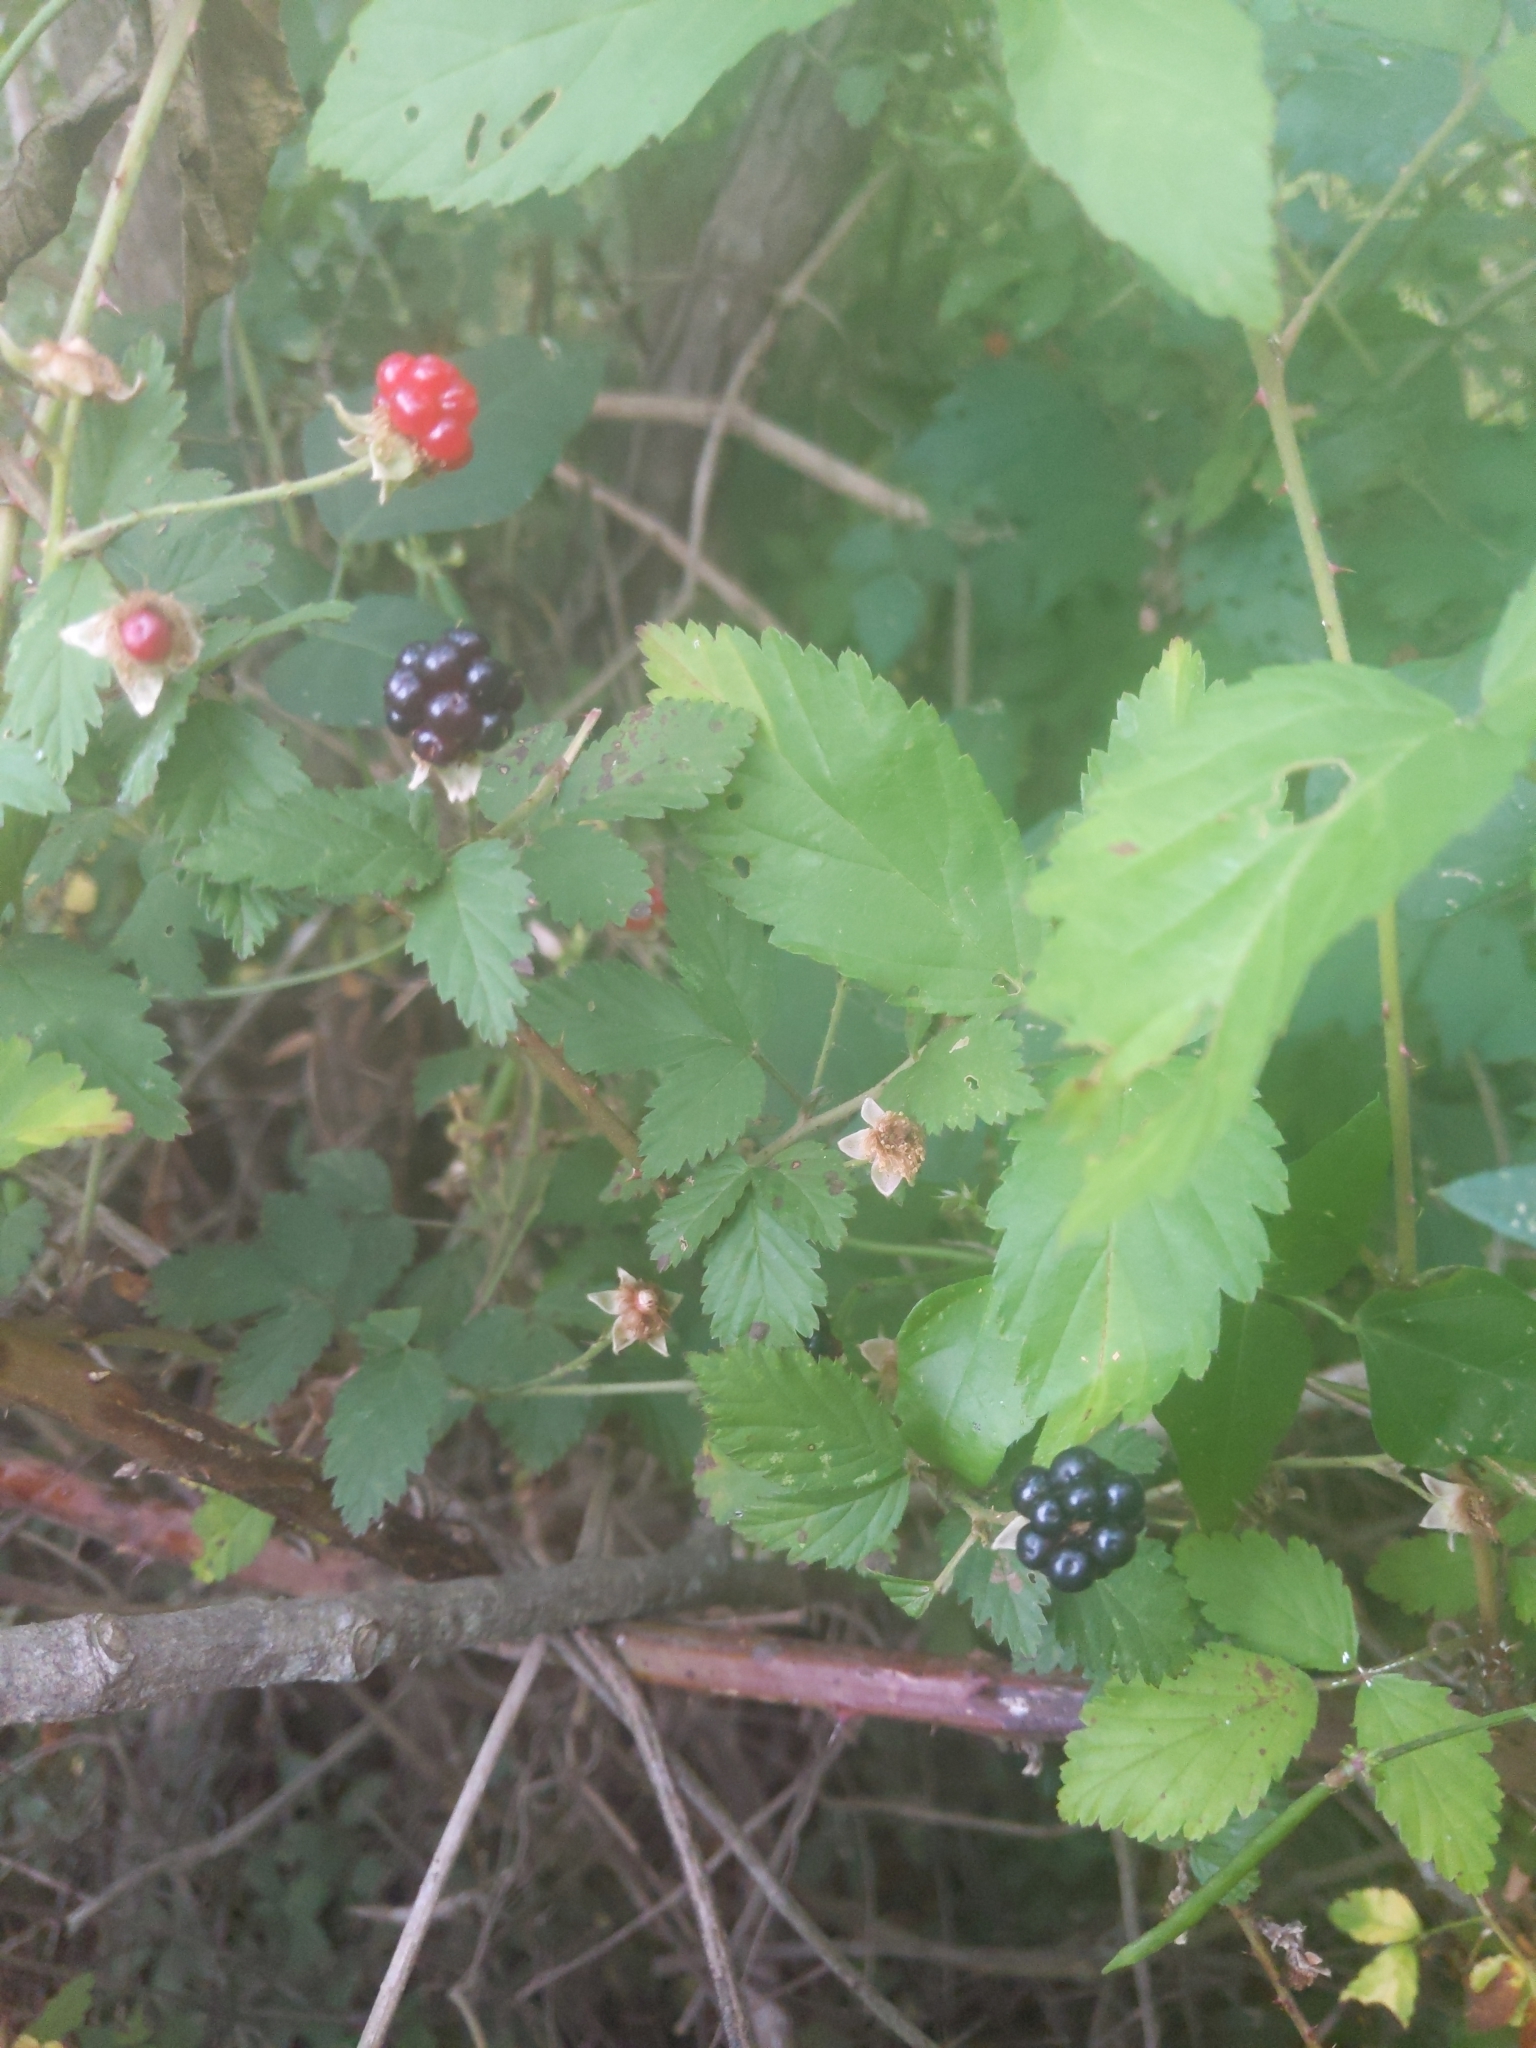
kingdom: Plantae
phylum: Tracheophyta
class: Magnoliopsida
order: Rosales
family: Rosaceae
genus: Rubus
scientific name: Rubus trivialis
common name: Southern dewberry
